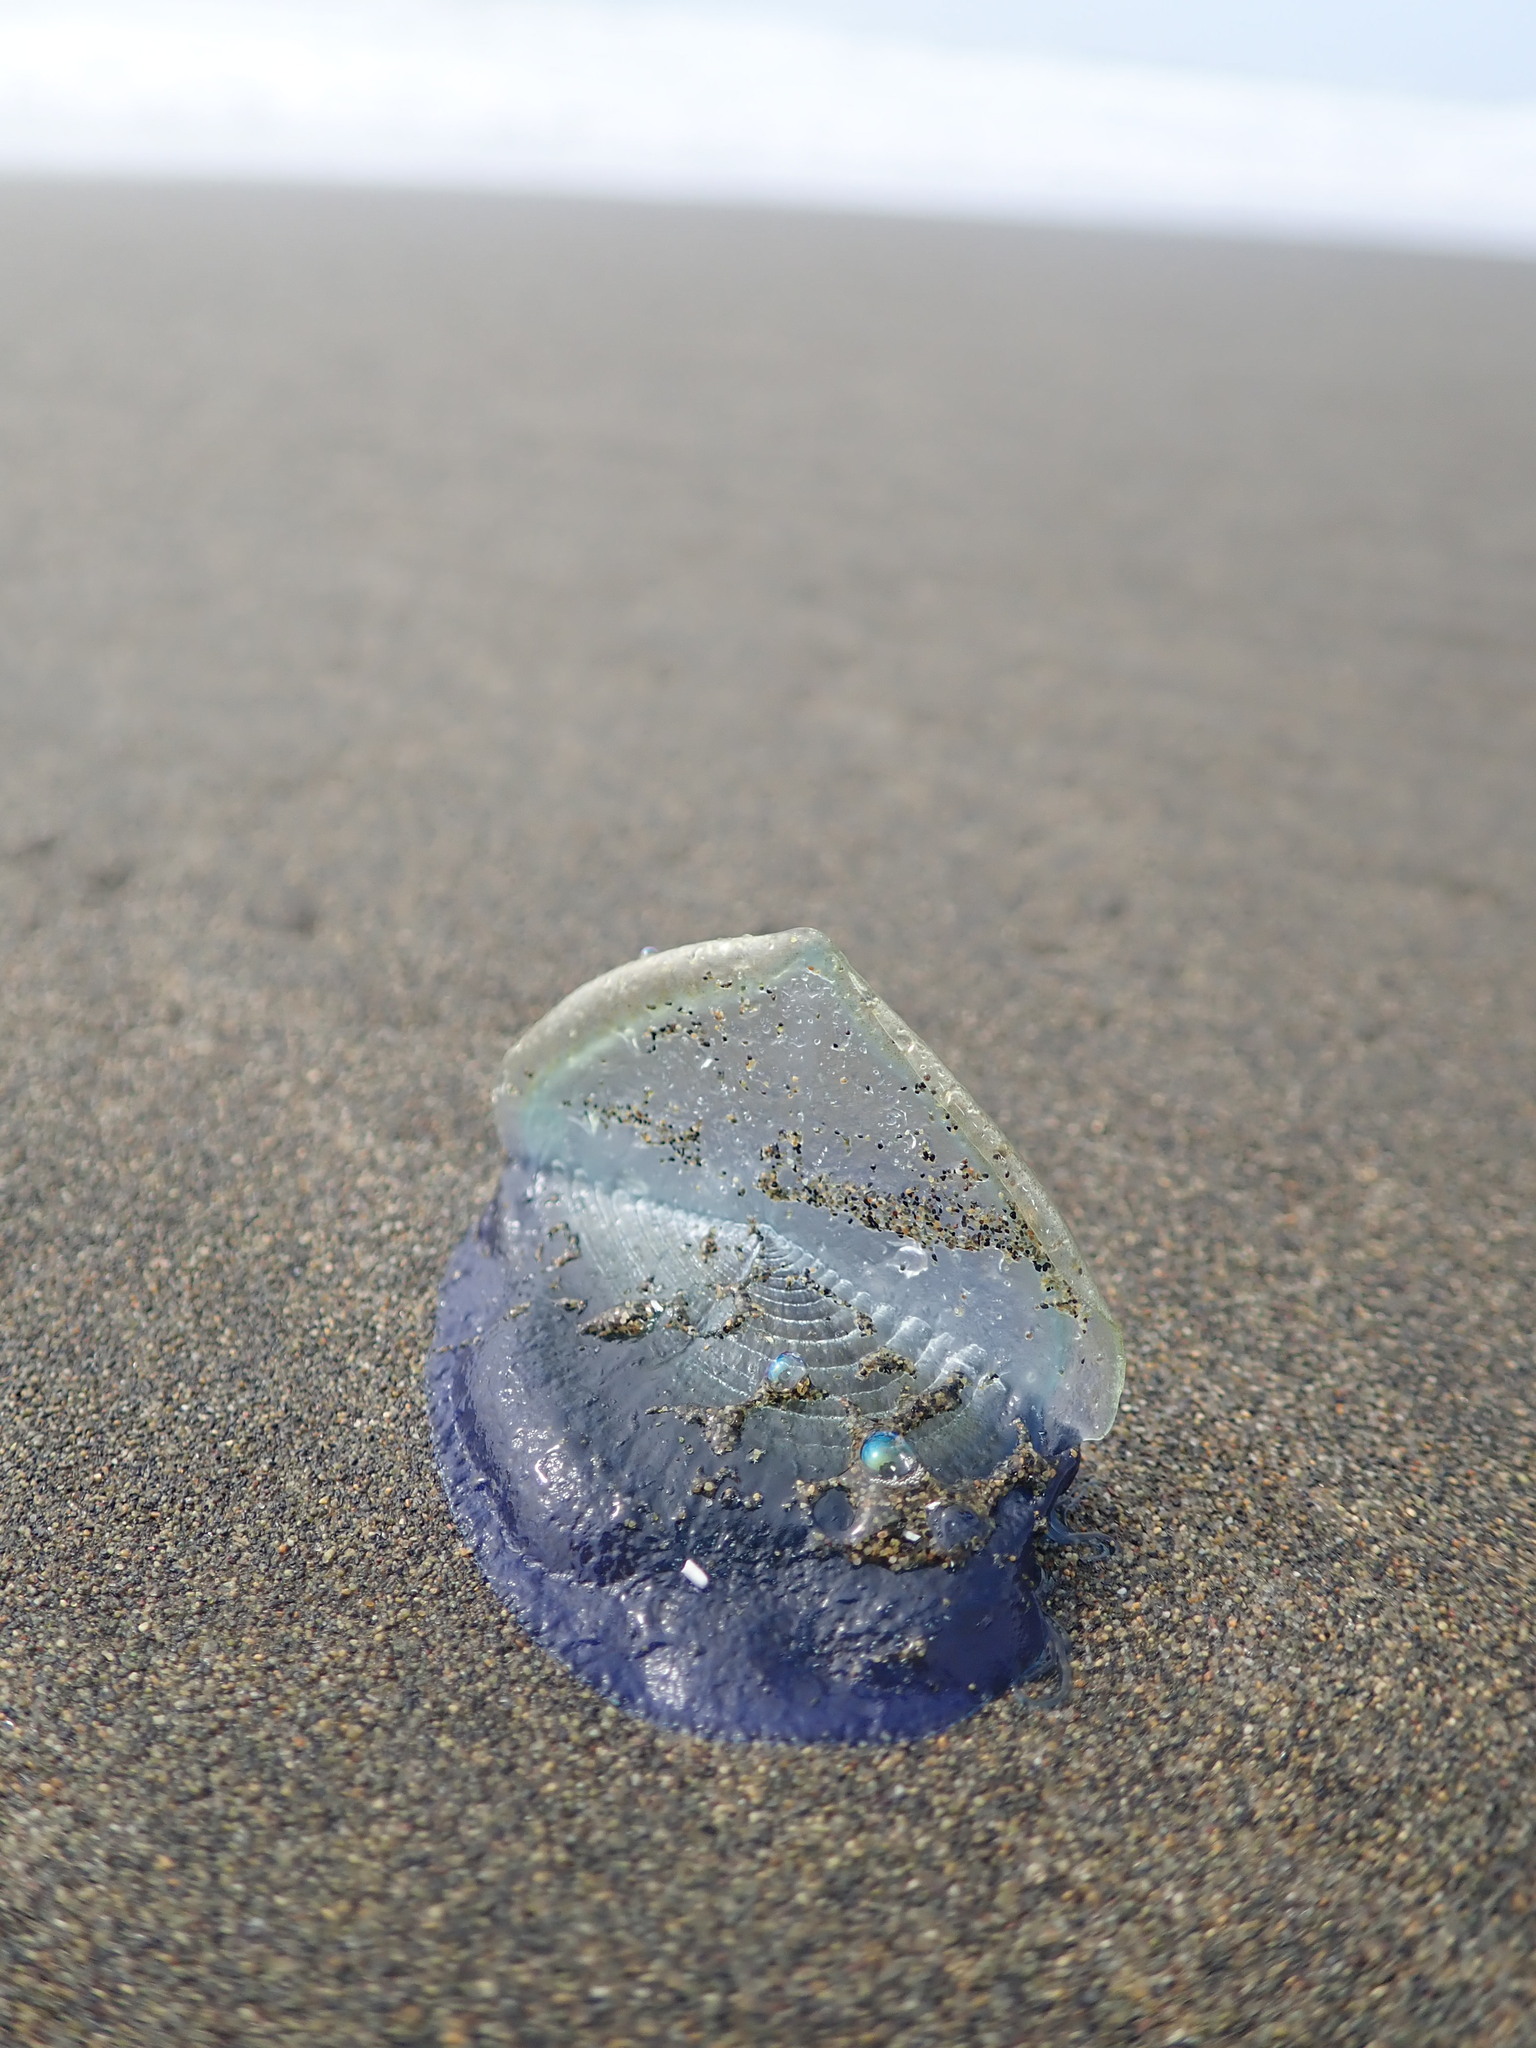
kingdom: Animalia
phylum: Cnidaria
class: Hydrozoa
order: Anthoathecata
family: Porpitidae
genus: Velella
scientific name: Velella velella
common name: By-the-wind-sailor
